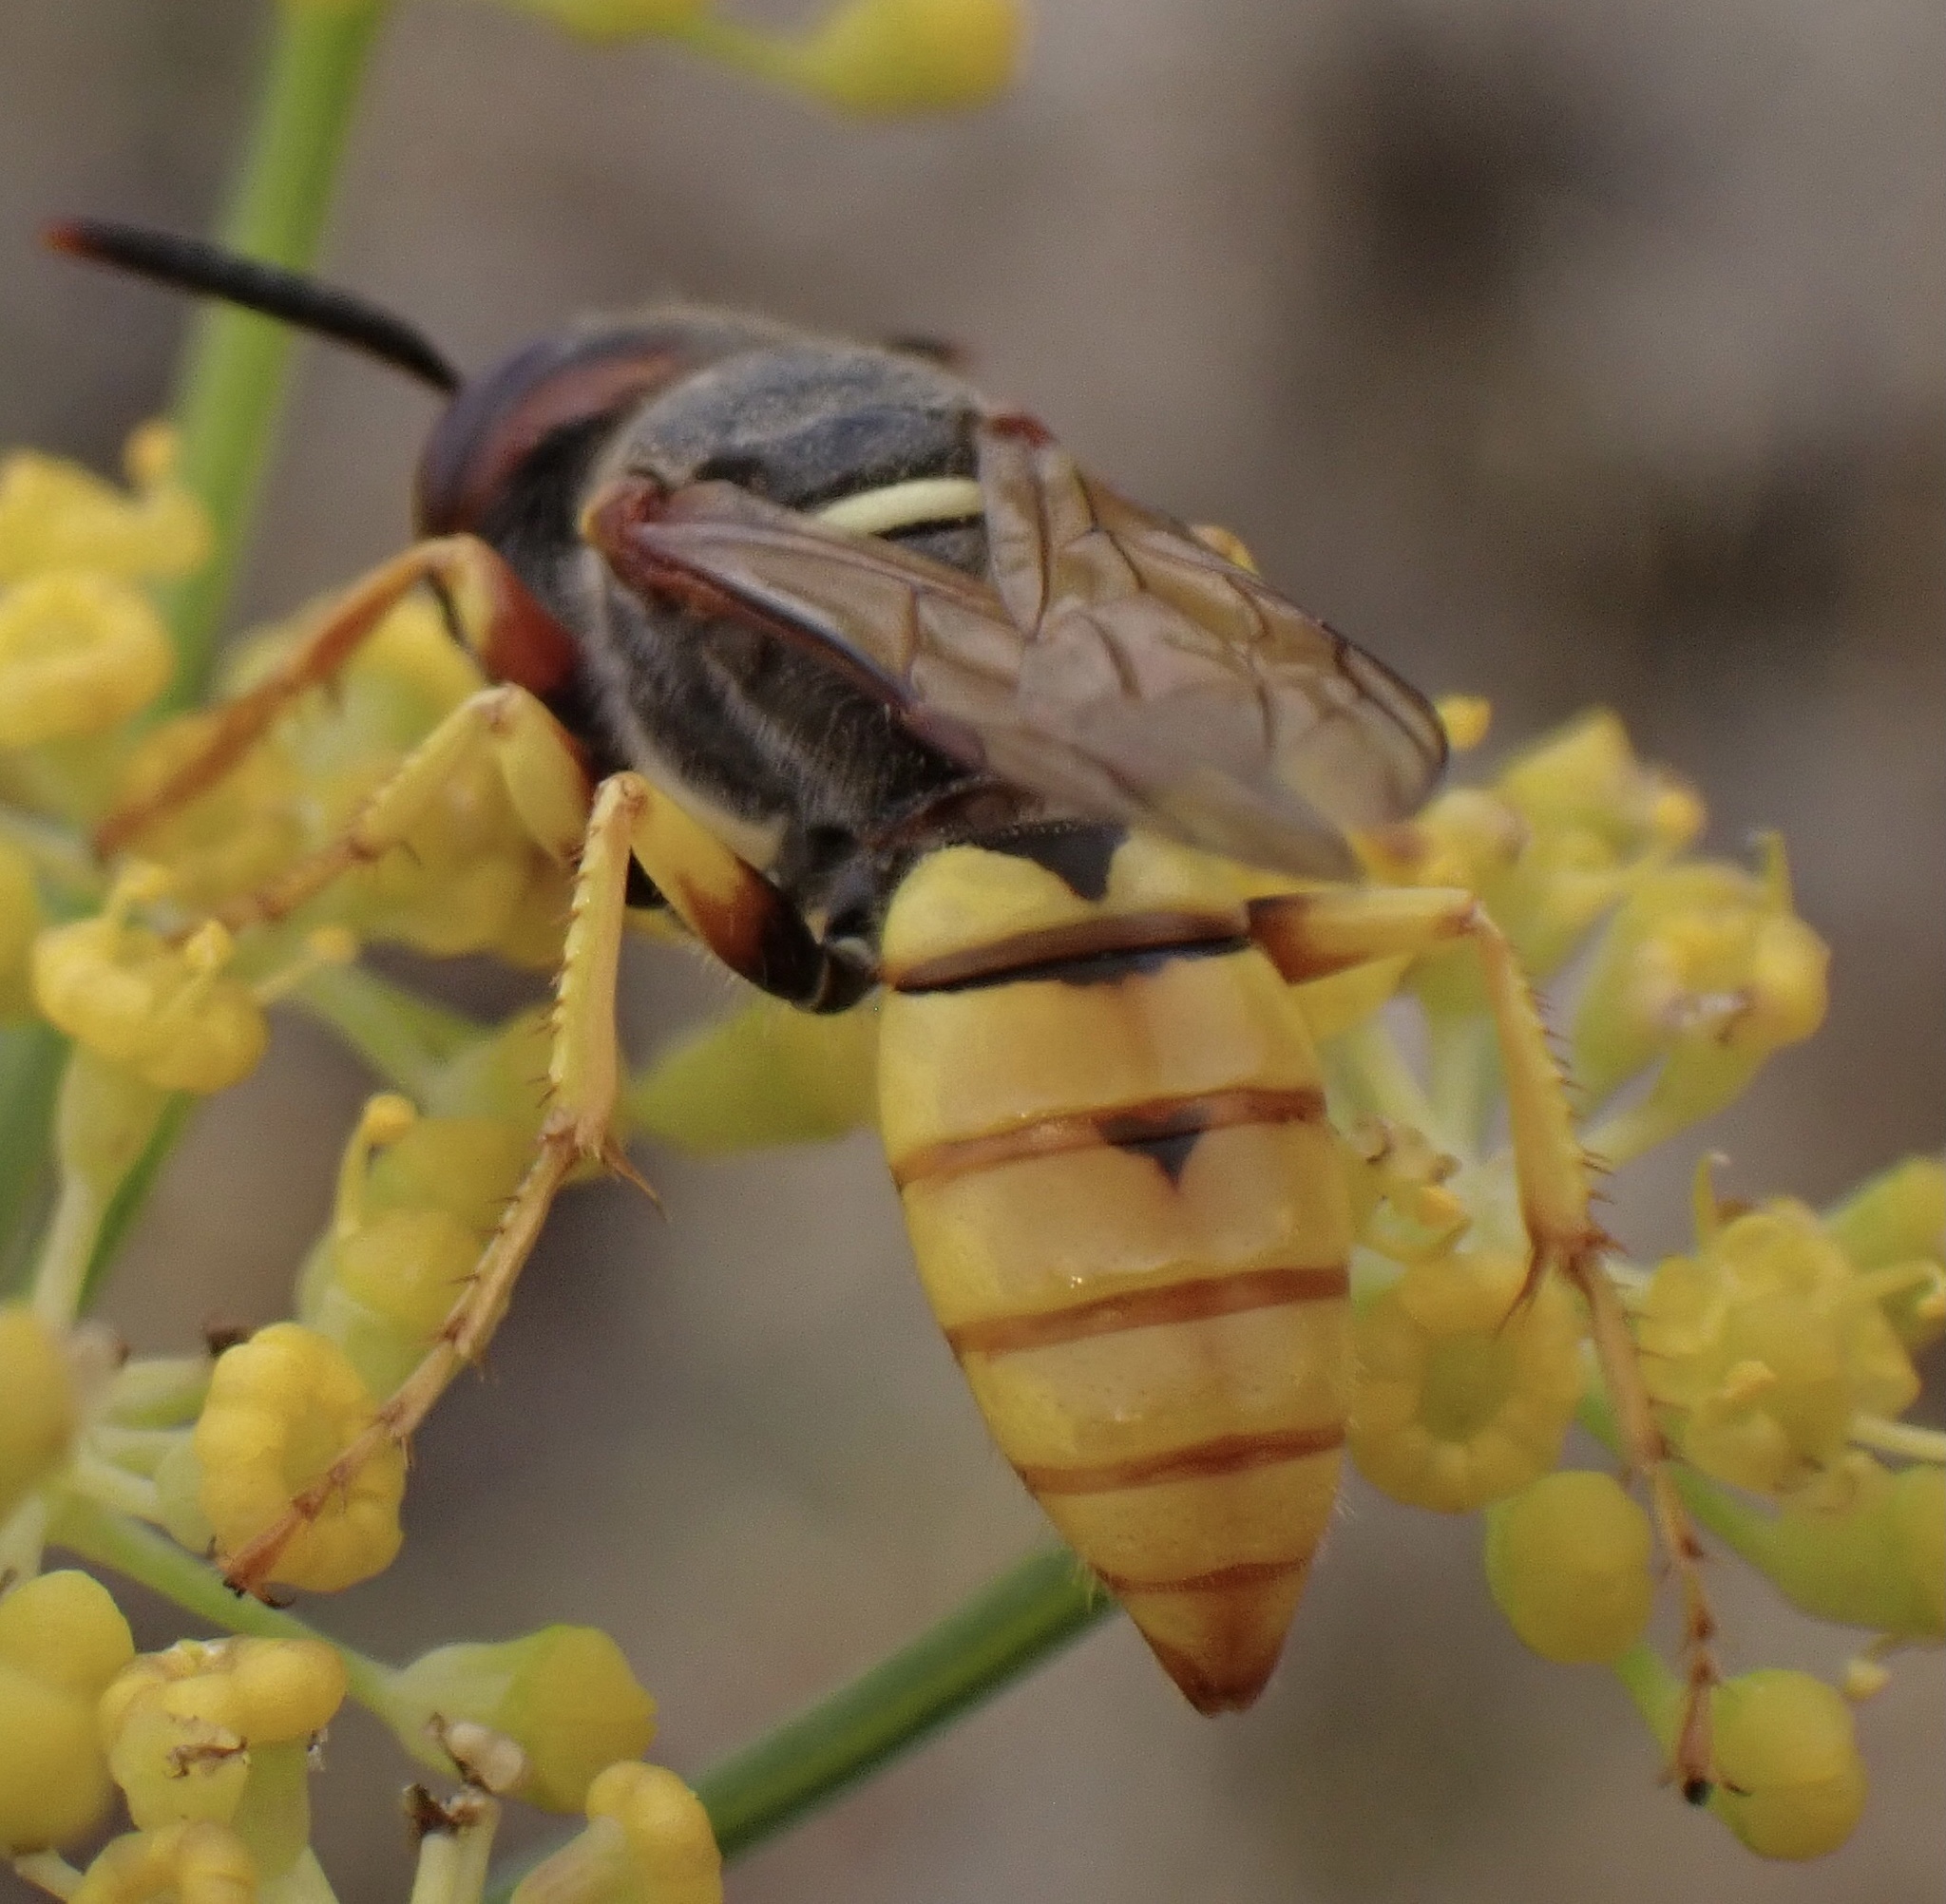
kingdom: Animalia
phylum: Arthropoda
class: Insecta
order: Hymenoptera
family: Crabronidae
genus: Philanthus
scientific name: Philanthus triangulum
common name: Bee wolf
